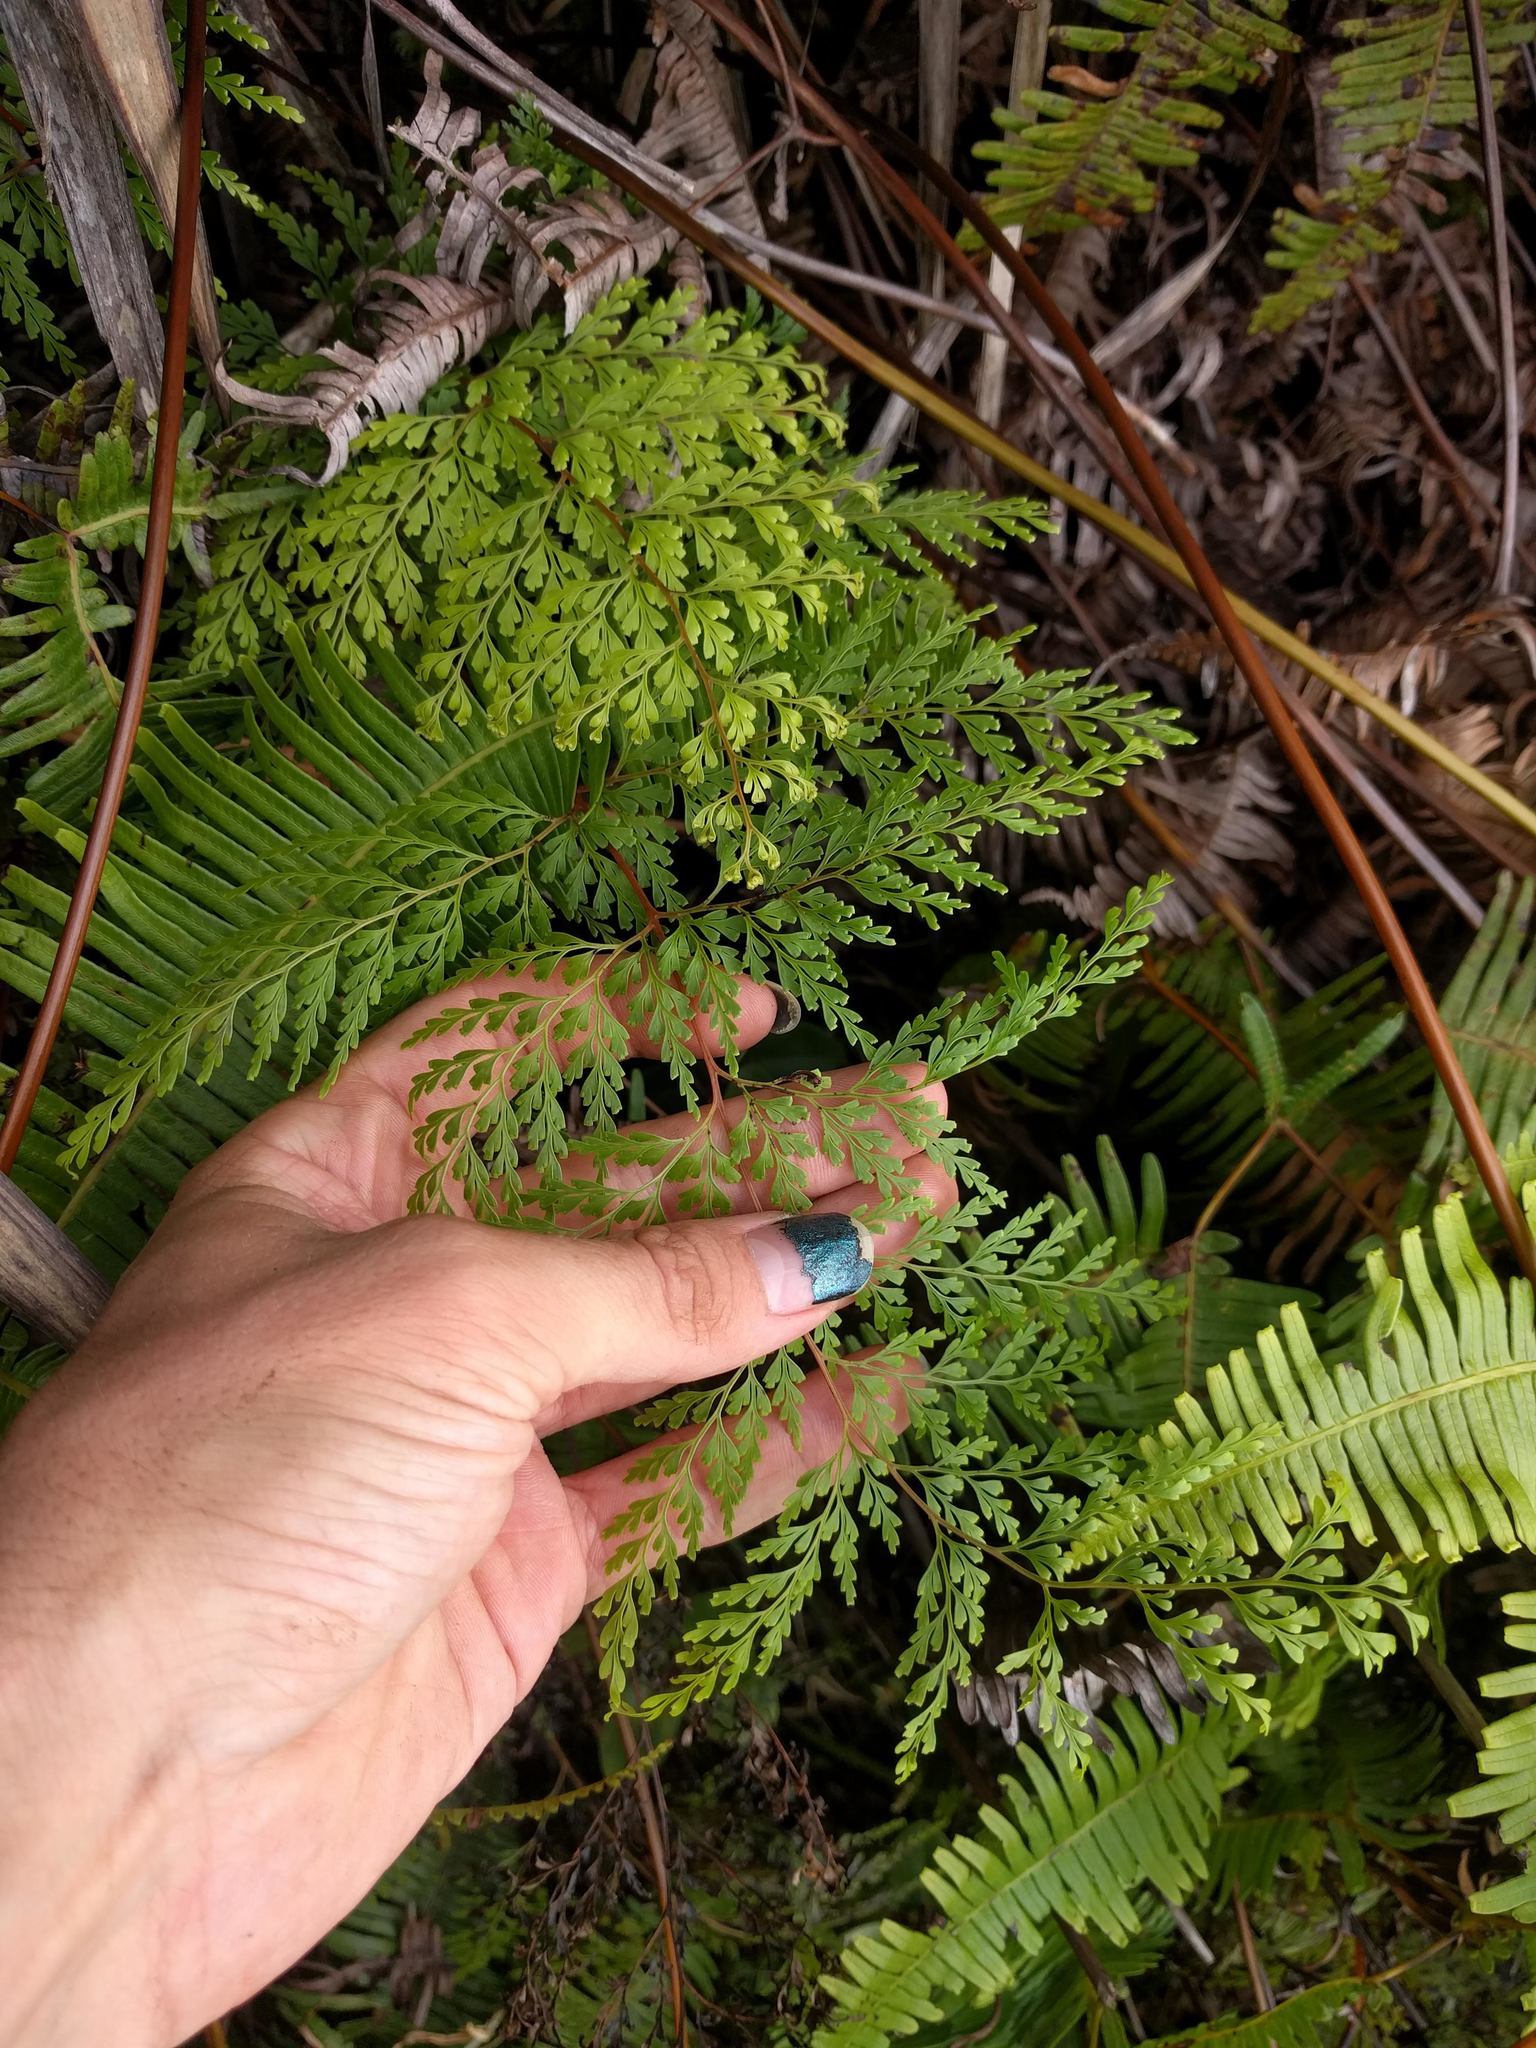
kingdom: Plantae
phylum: Tracheophyta
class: Polypodiopsida
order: Polypodiales
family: Lindsaeaceae
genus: Odontosoria
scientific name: Odontosoria chinensis
